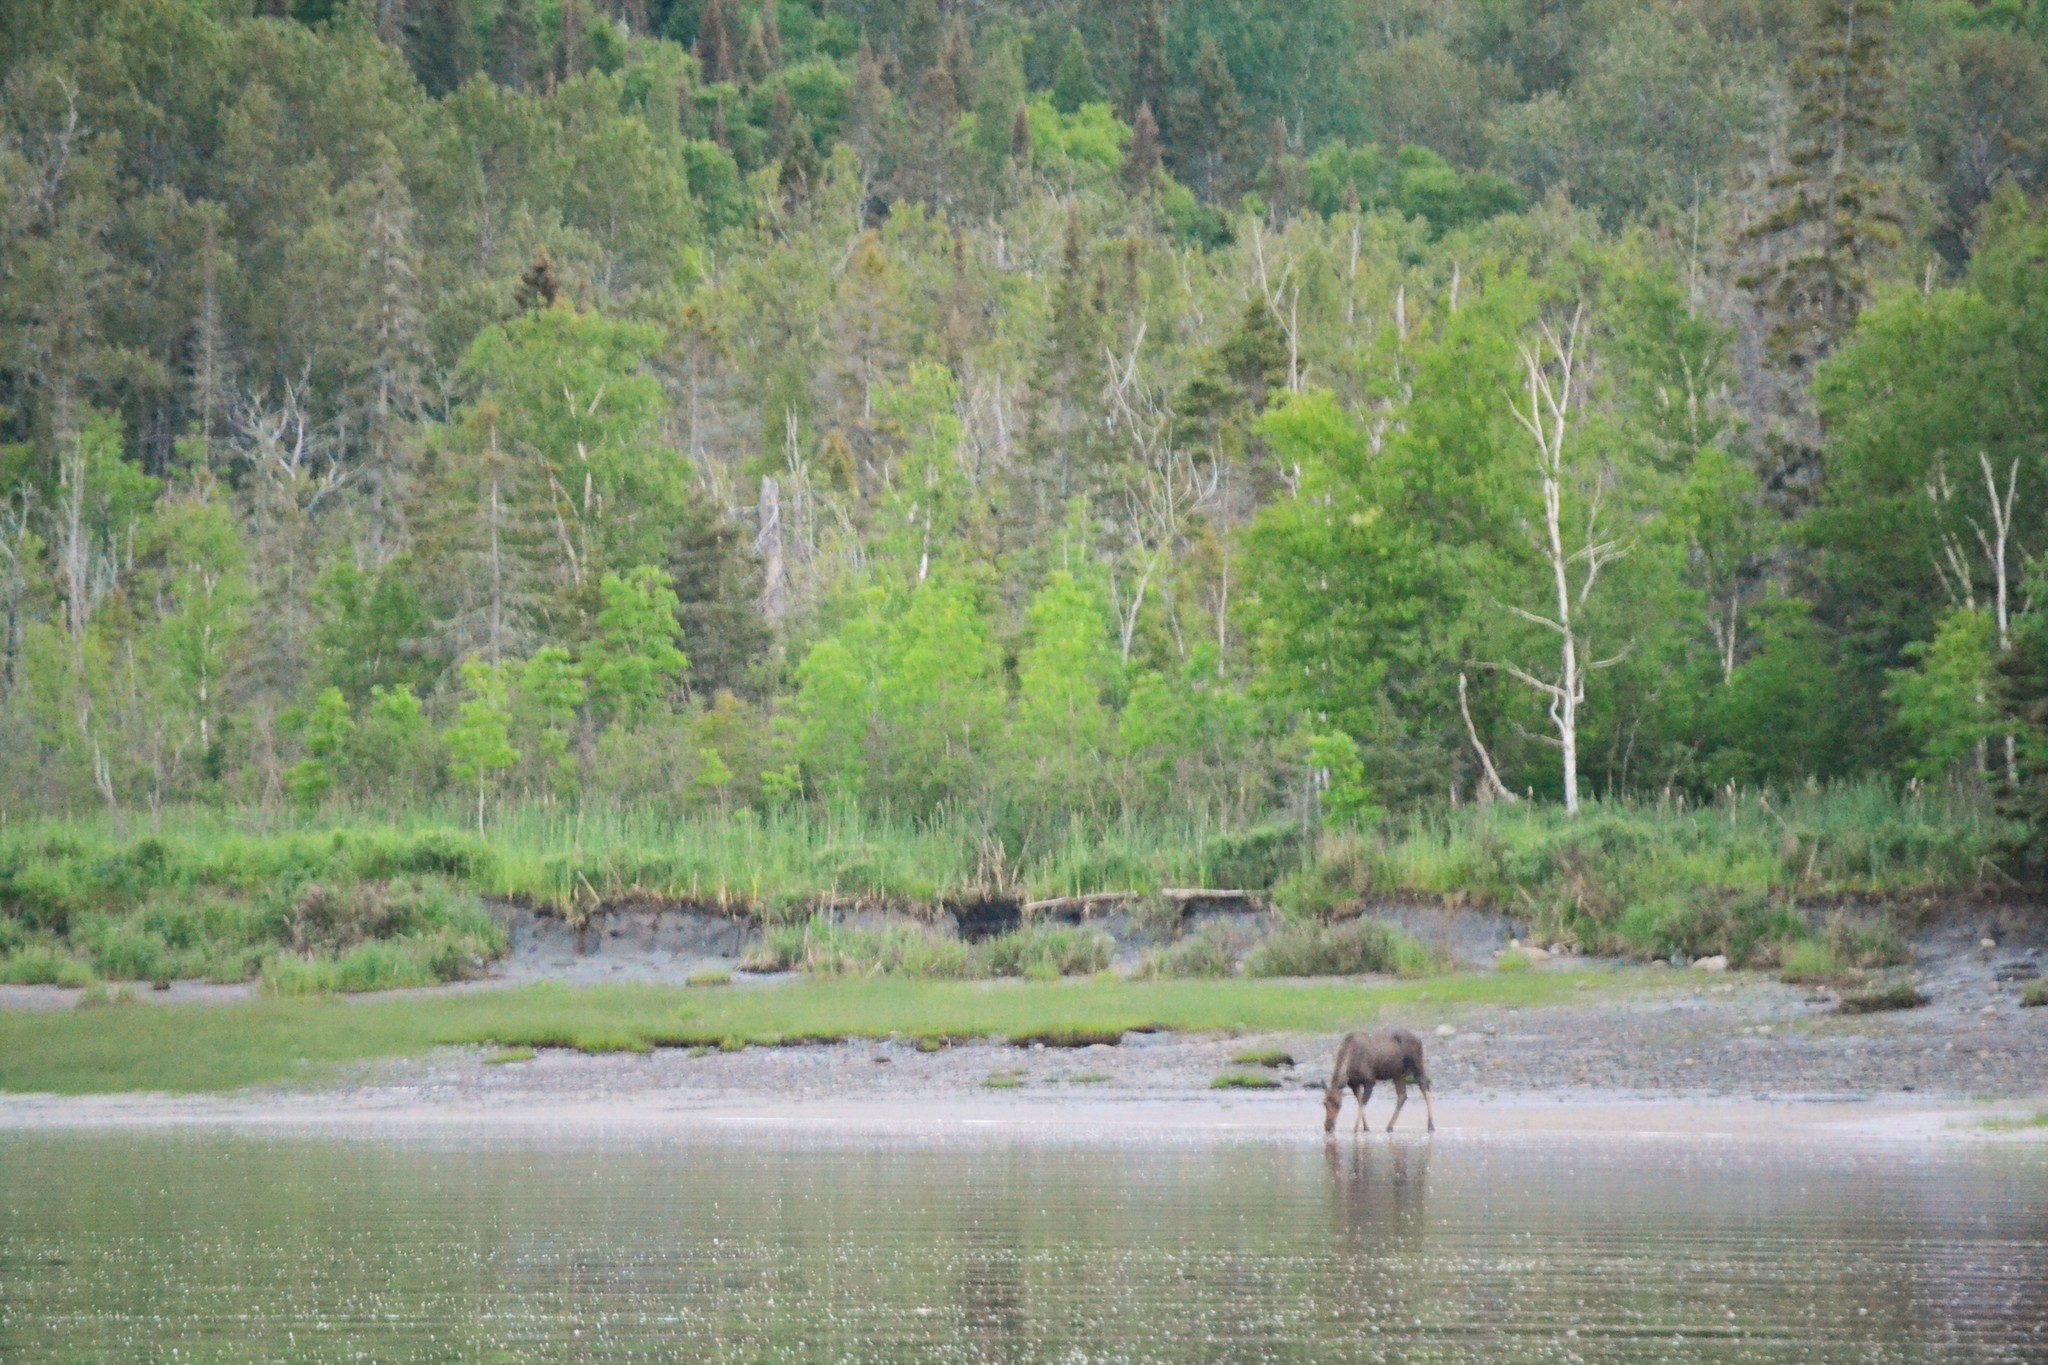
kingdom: Animalia
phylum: Chordata
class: Mammalia
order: Artiodactyla
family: Cervidae
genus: Alces
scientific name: Alces alces
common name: Moose
